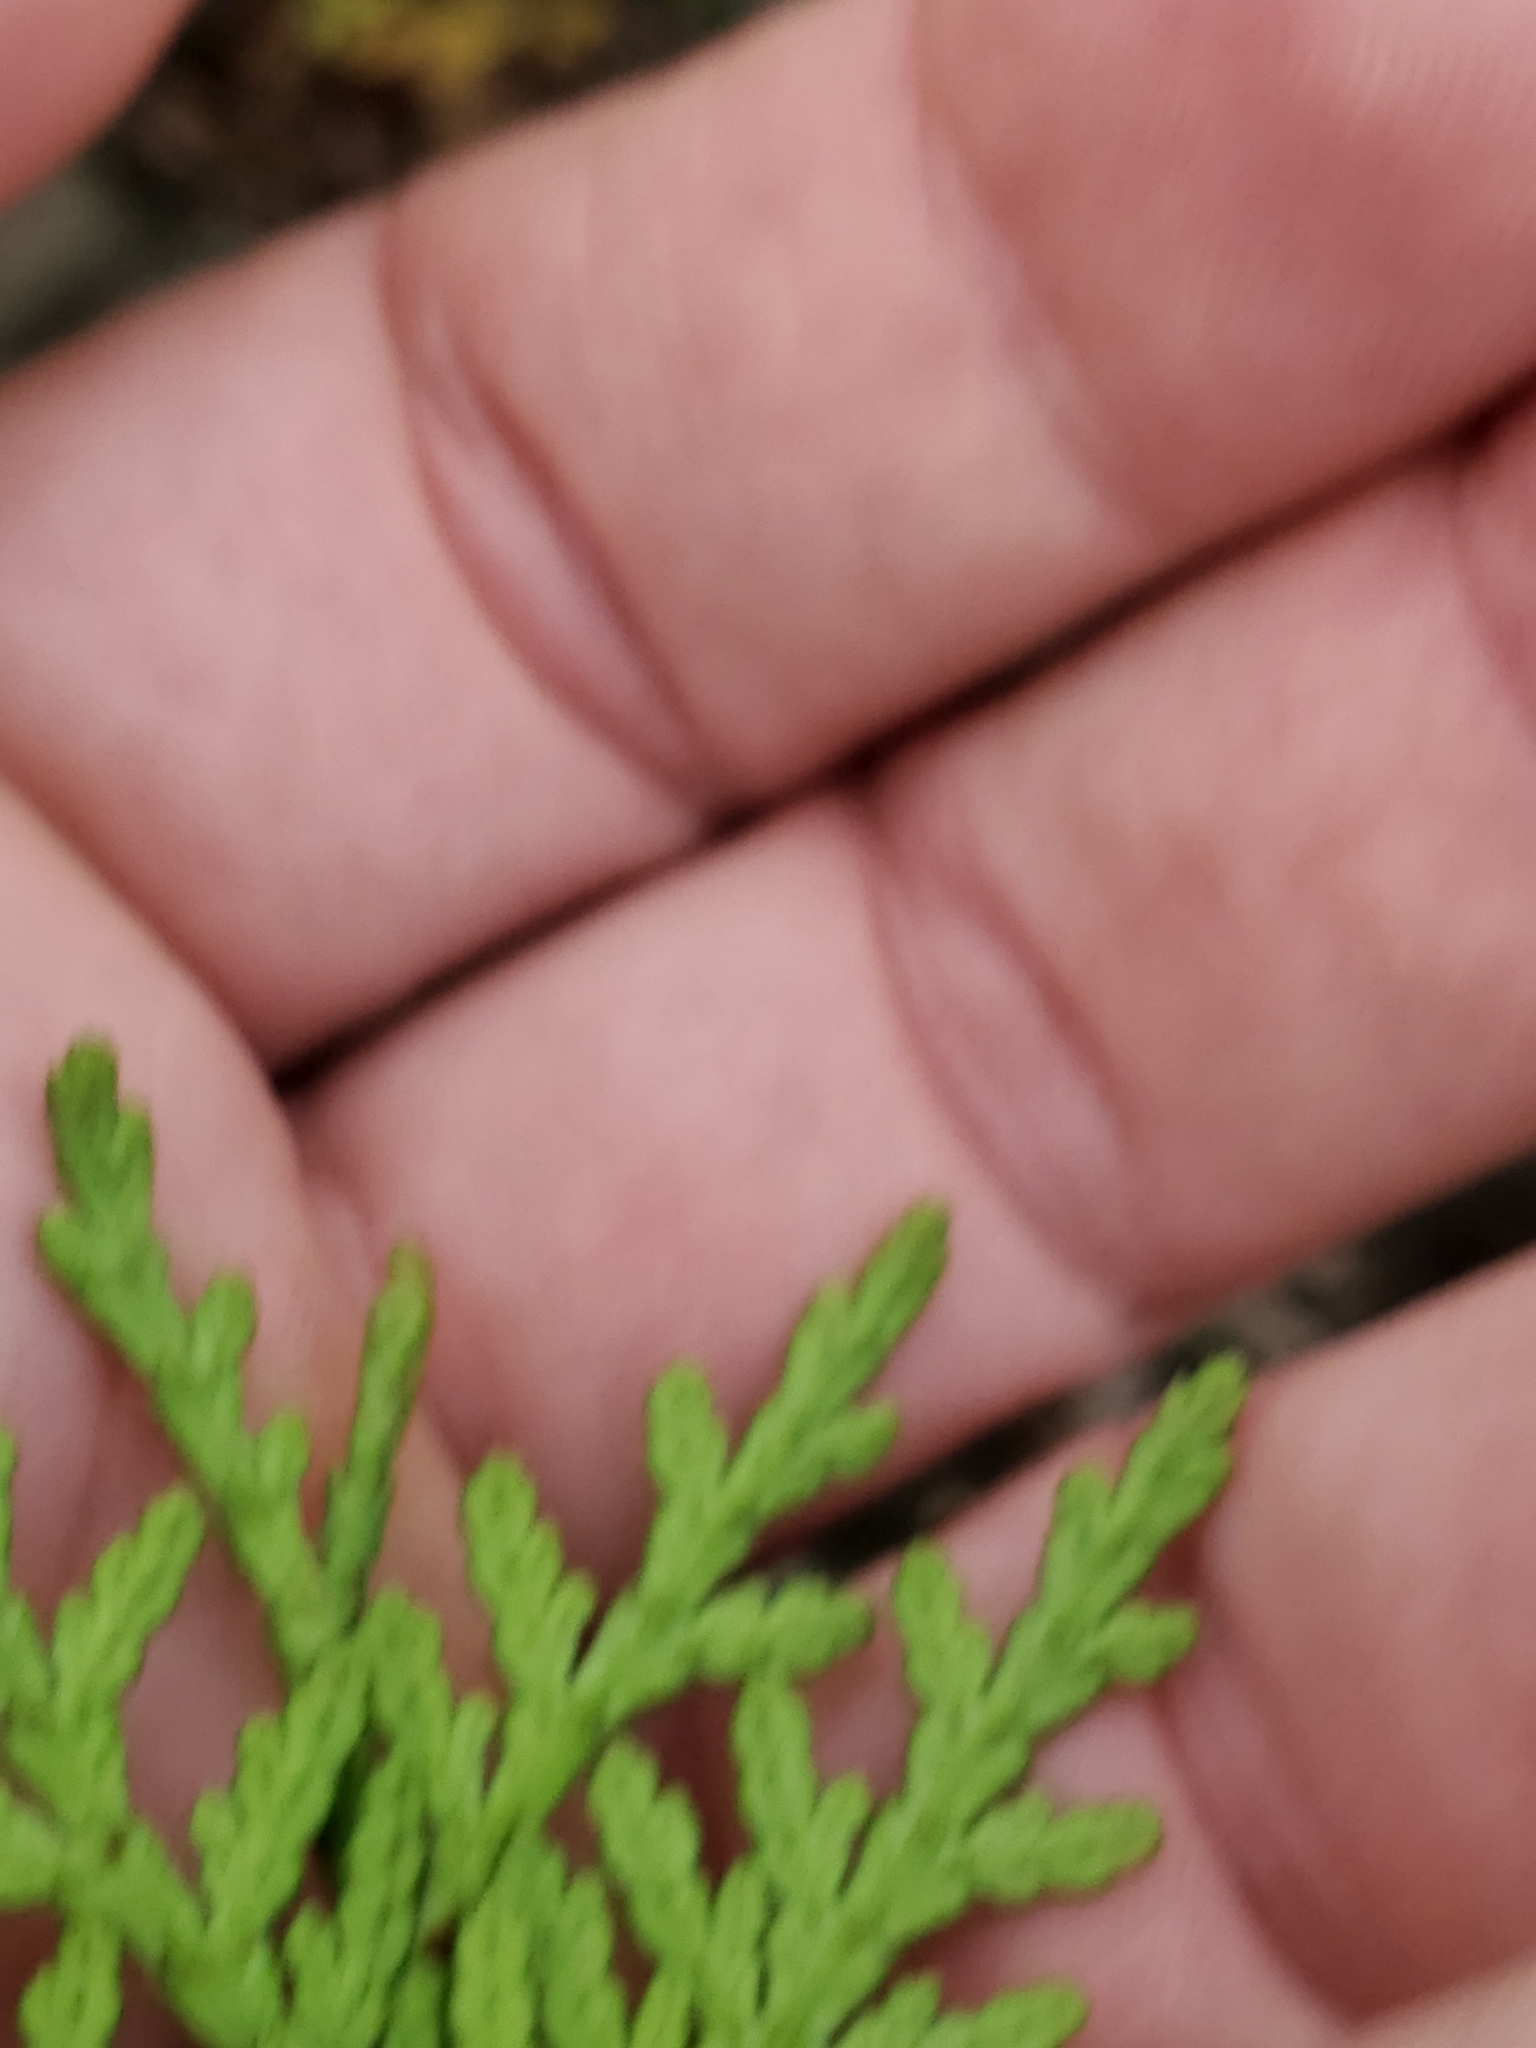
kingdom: Plantae
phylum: Tracheophyta
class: Pinopsida
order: Pinales
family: Cupressaceae
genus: Thuja
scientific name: Thuja occidentalis
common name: Northern white-cedar
